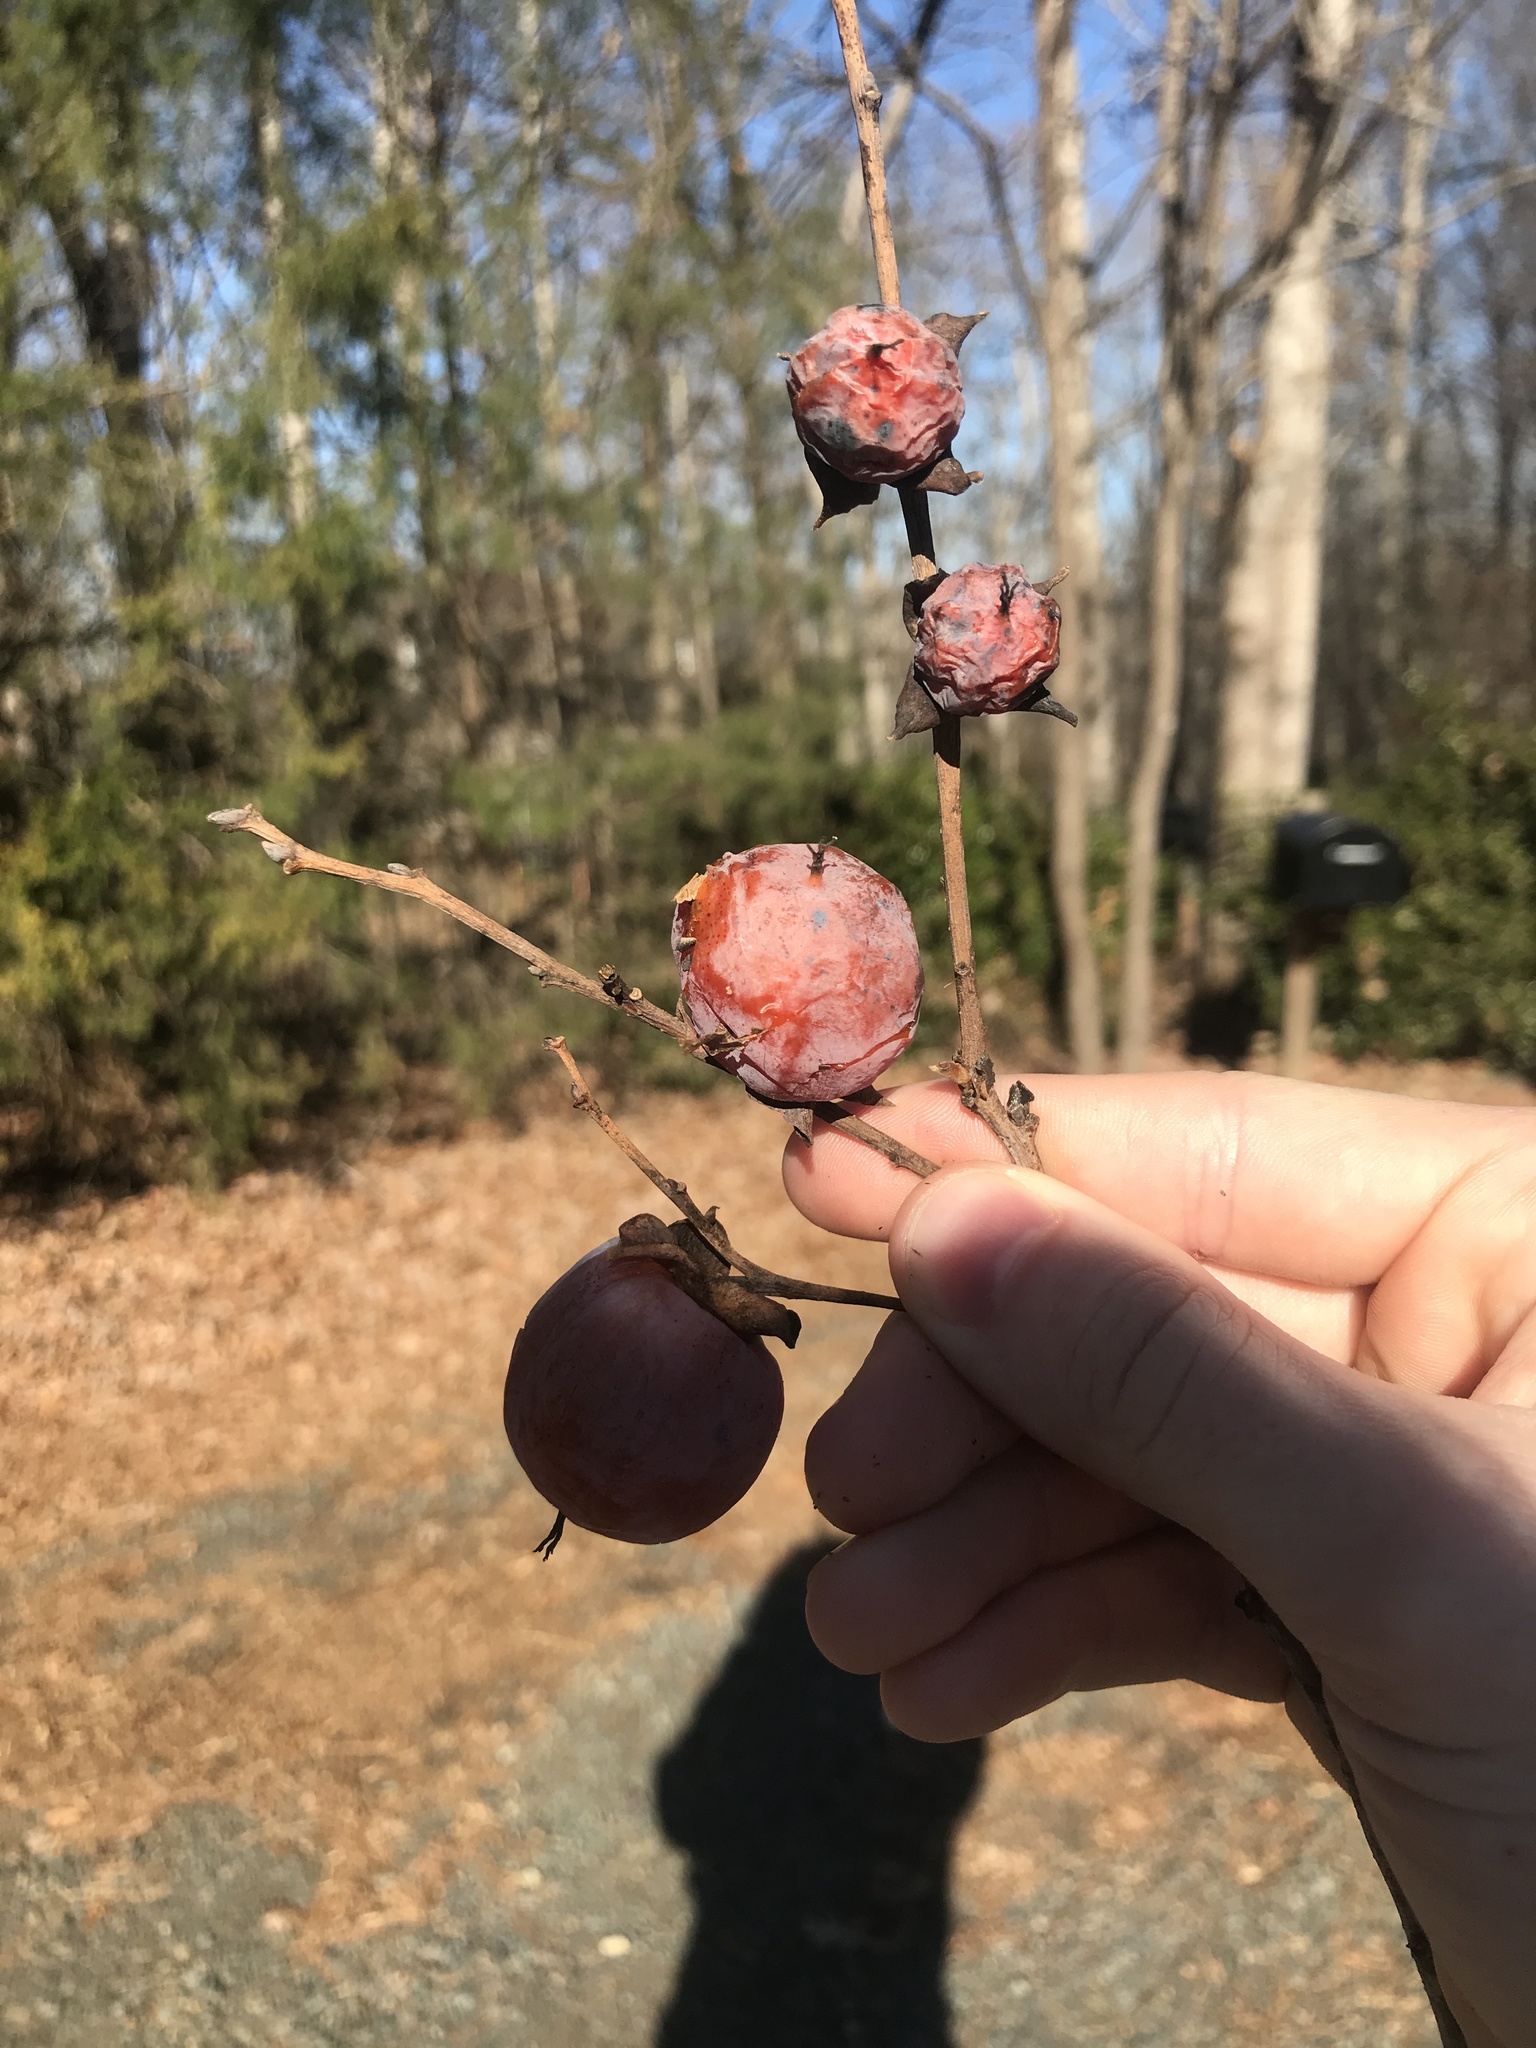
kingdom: Plantae
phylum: Tracheophyta
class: Magnoliopsida
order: Ericales
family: Ebenaceae
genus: Diospyros
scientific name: Diospyros virginiana
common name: Persimmon
